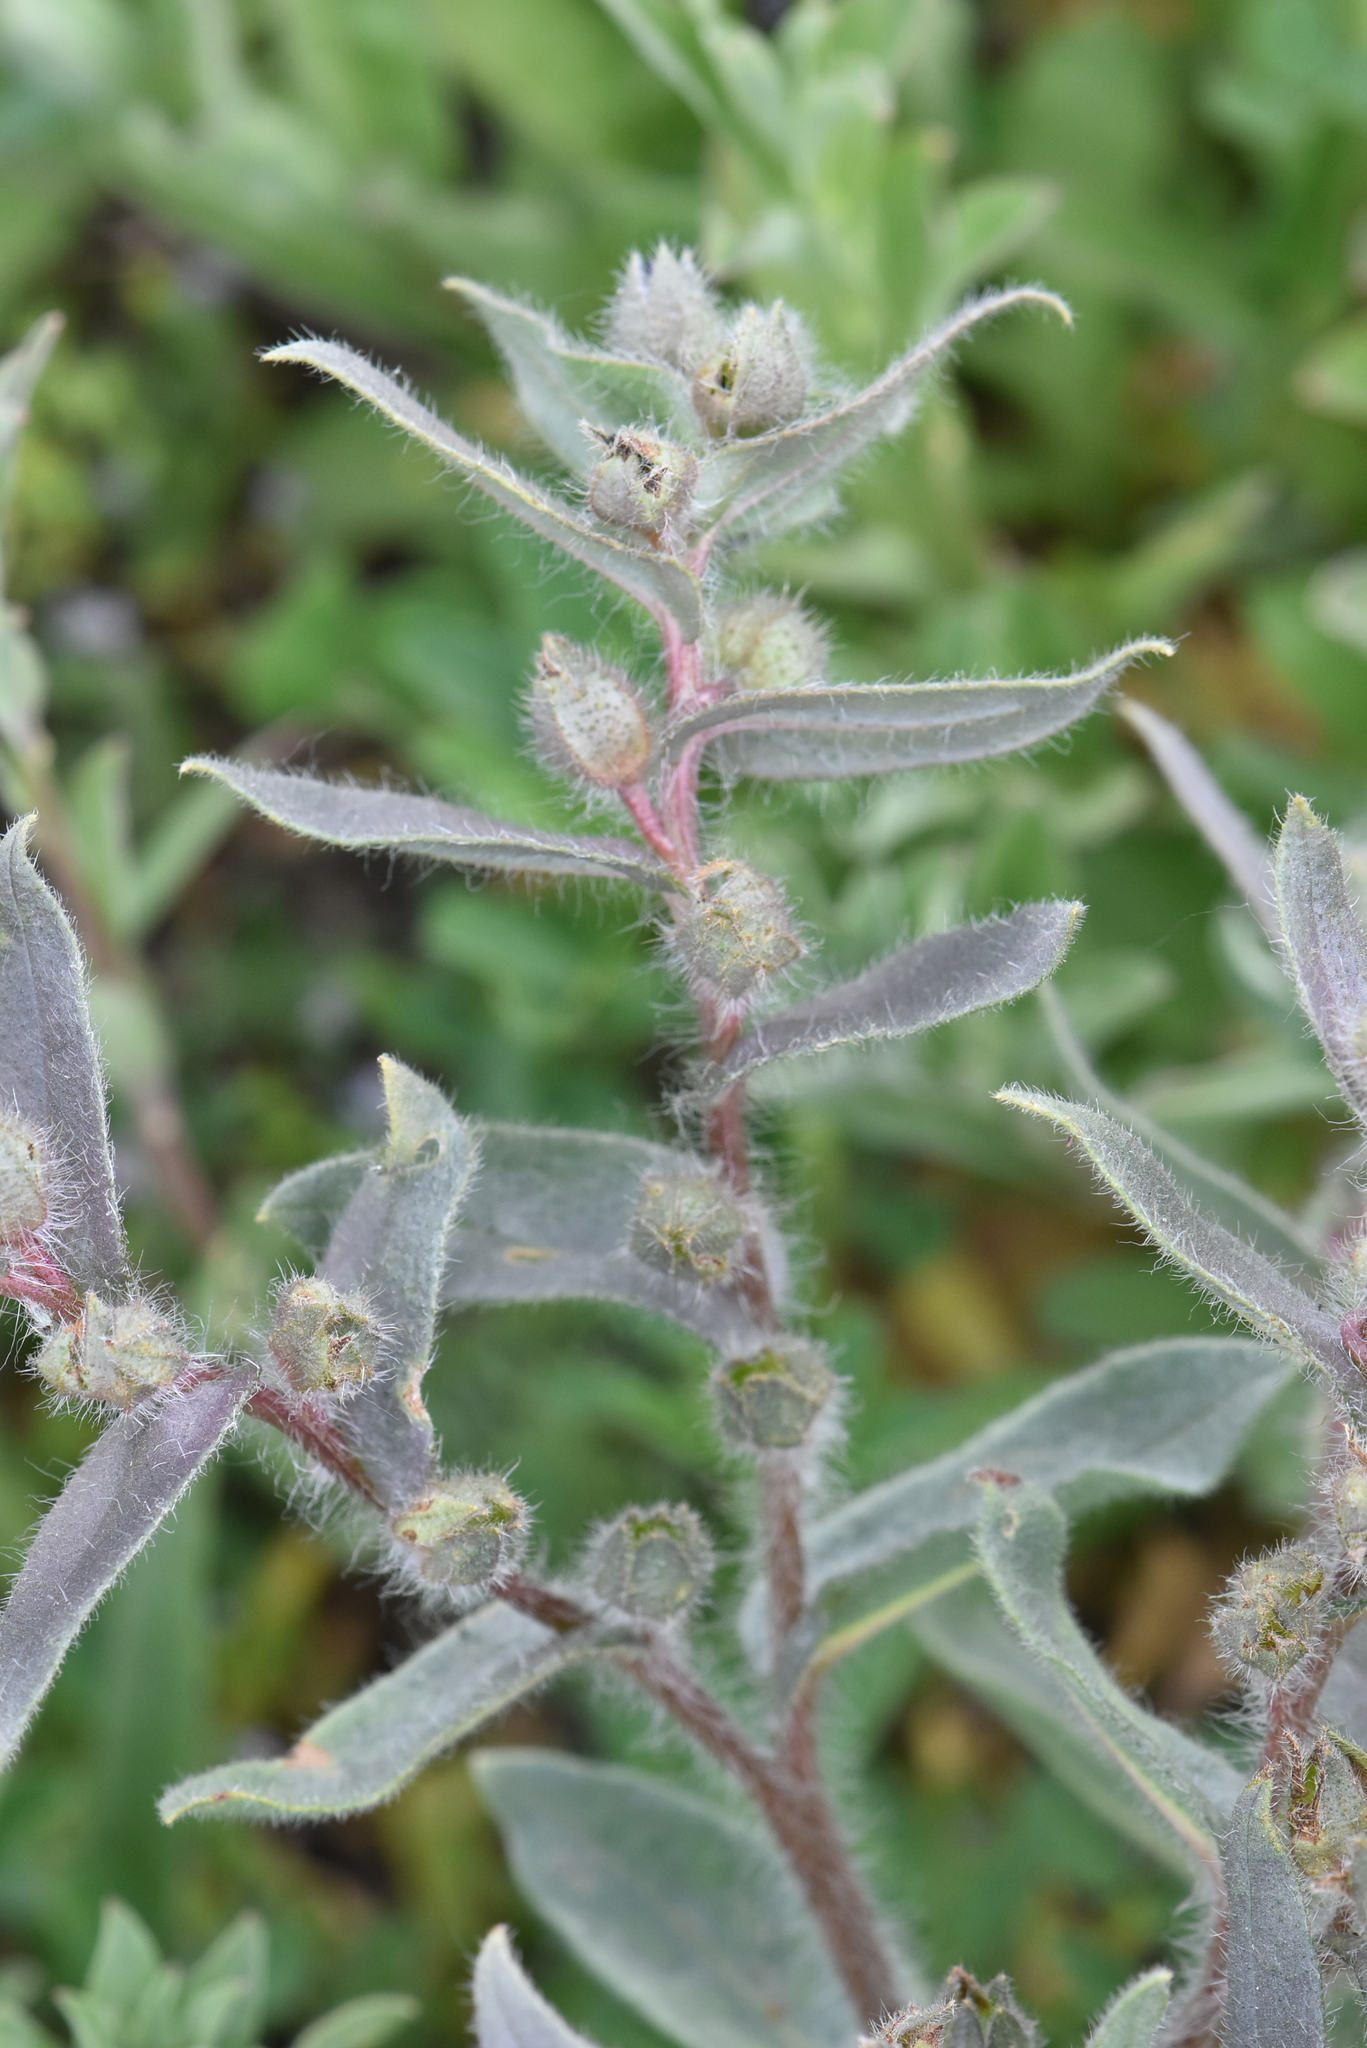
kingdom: Plantae
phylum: Tracheophyta
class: Magnoliopsida
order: Boraginales
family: Boraginaceae
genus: Nonea
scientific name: Nonea pulla
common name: Brown nonea
